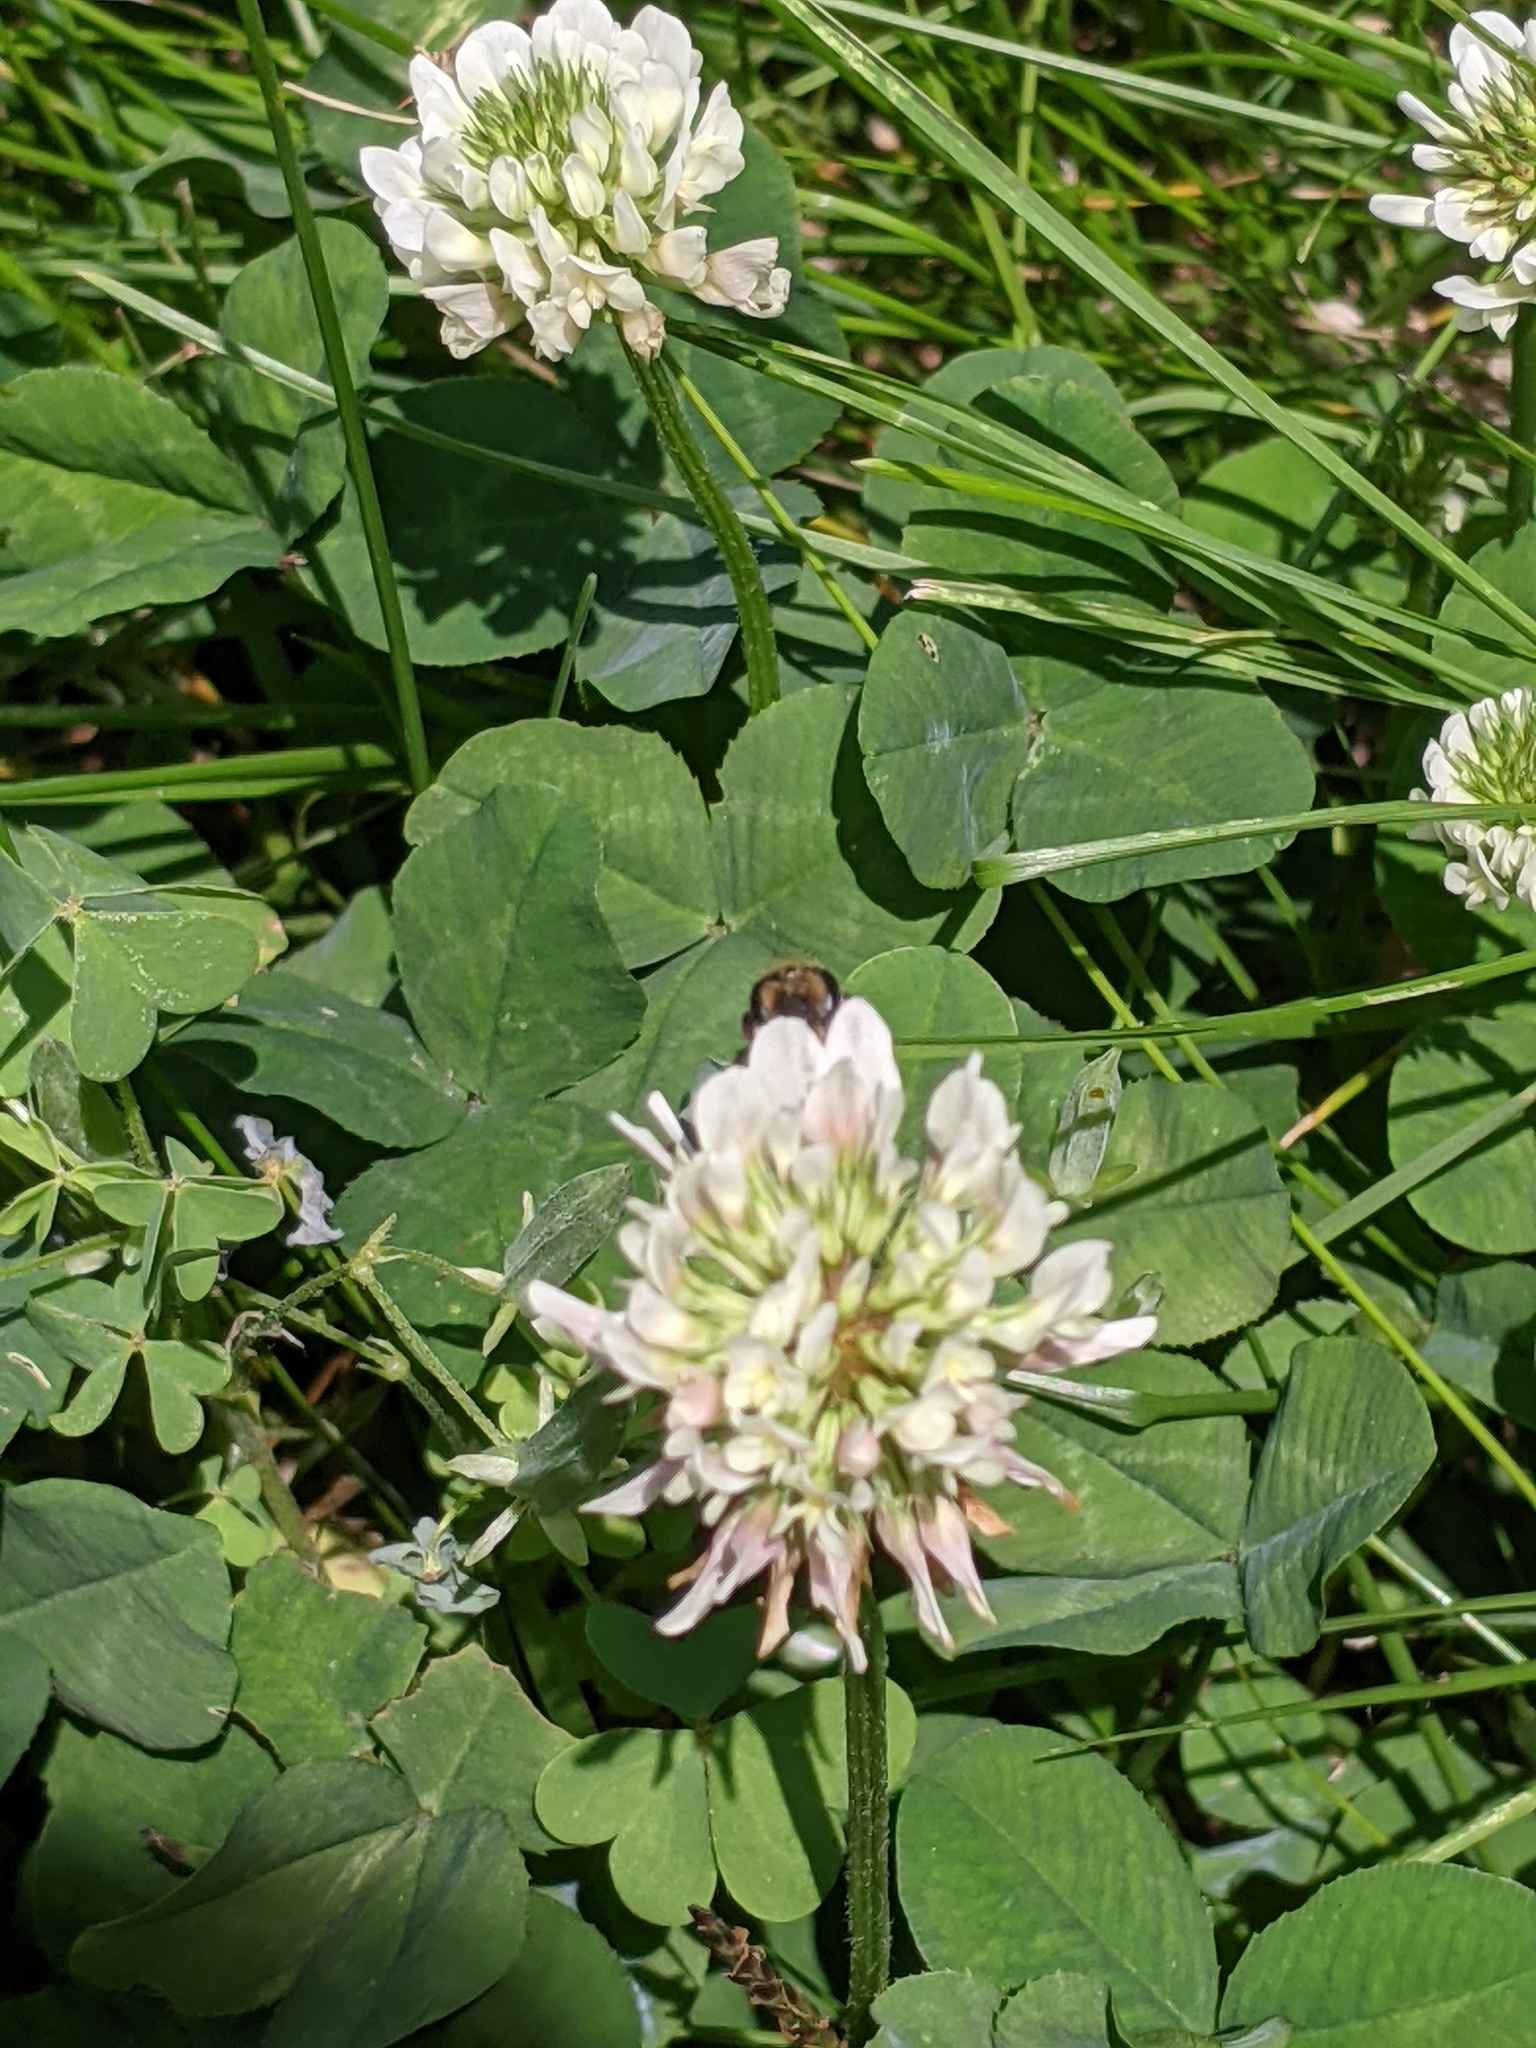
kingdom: Animalia
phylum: Arthropoda
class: Insecta
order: Hymenoptera
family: Andrenidae
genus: Andrena
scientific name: Andrena wilkella
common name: Wilke's mining bee
